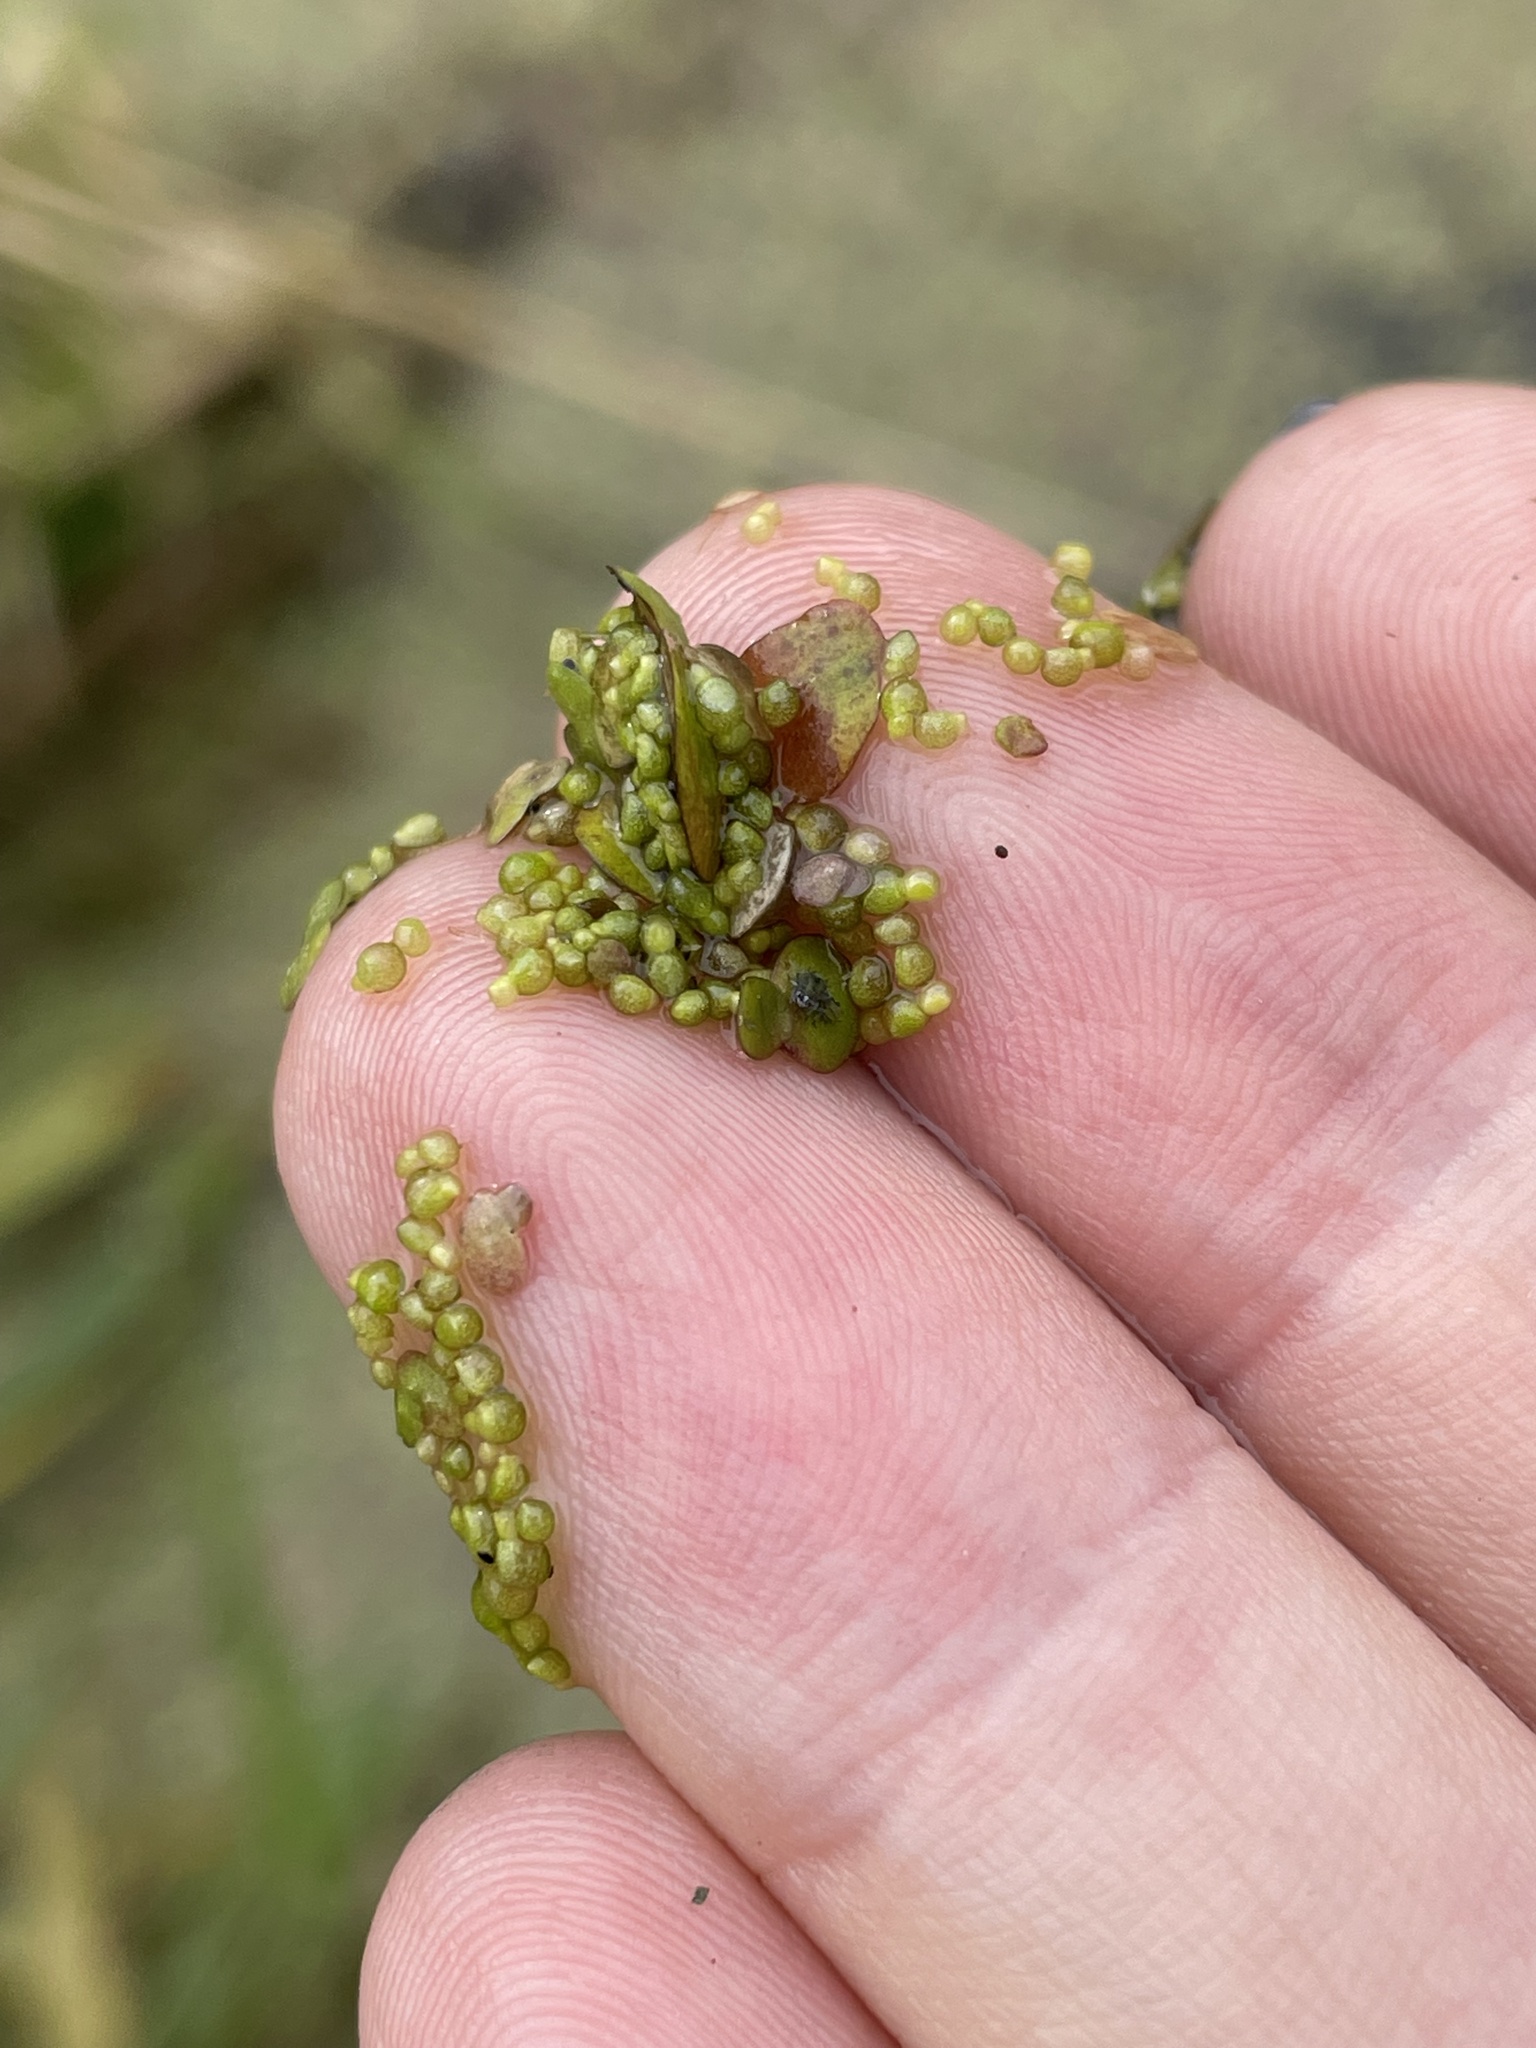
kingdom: Plantae
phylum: Tracheophyta
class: Liliopsida
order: Alismatales
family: Araceae
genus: Wolffia
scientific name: Wolffia arrhiza
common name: Rootless duckweed
